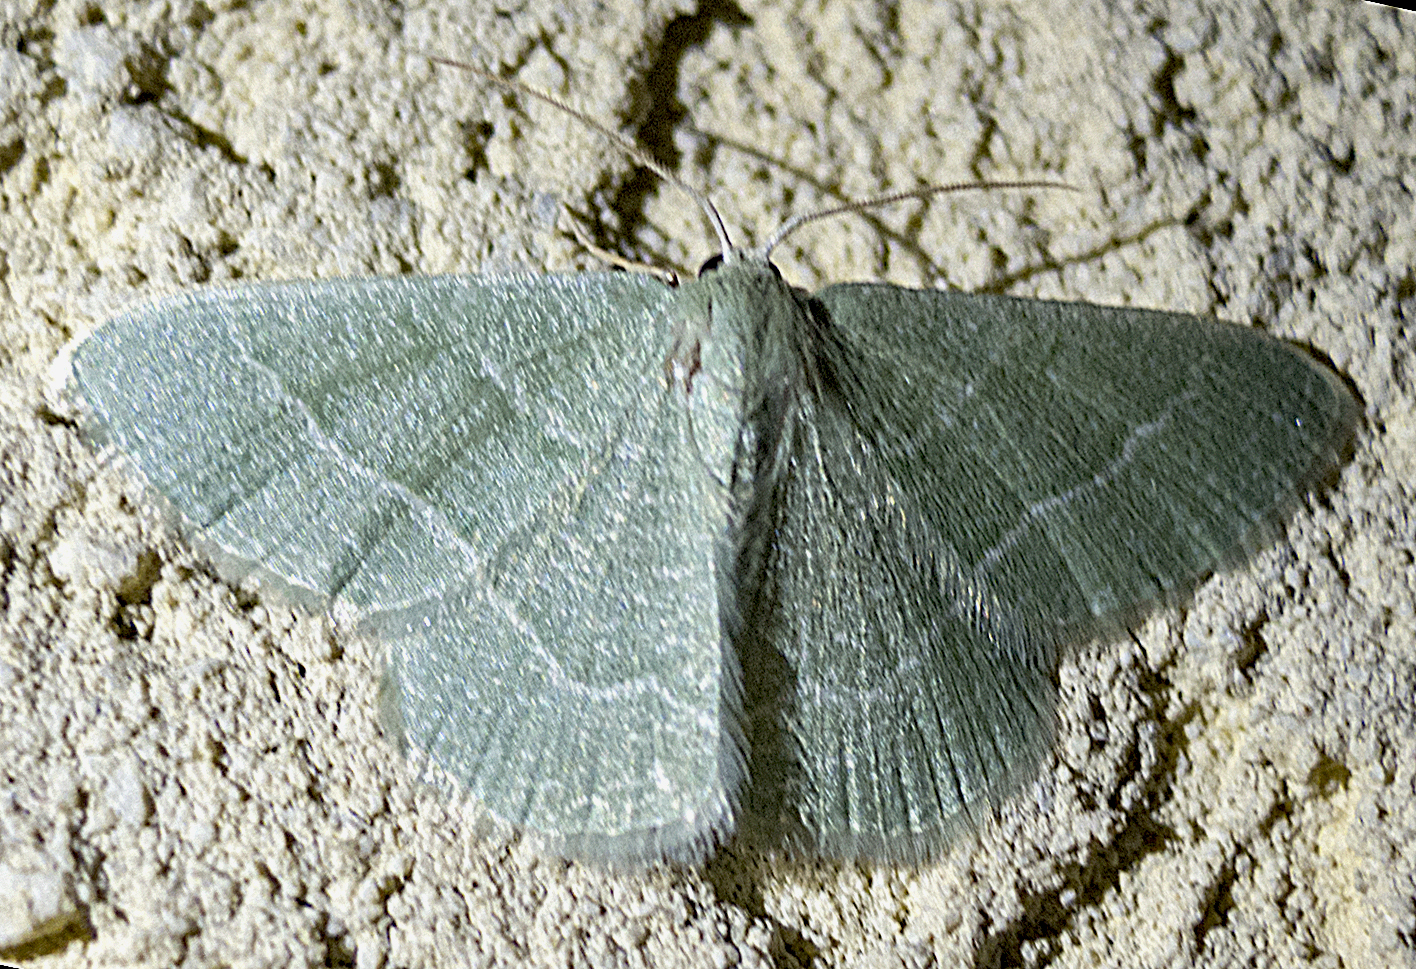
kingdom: Animalia
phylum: Arthropoda
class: Insecta
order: Lepidoptera
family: Geometridae
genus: Chlorissa
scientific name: Chlorissa etruscaria
